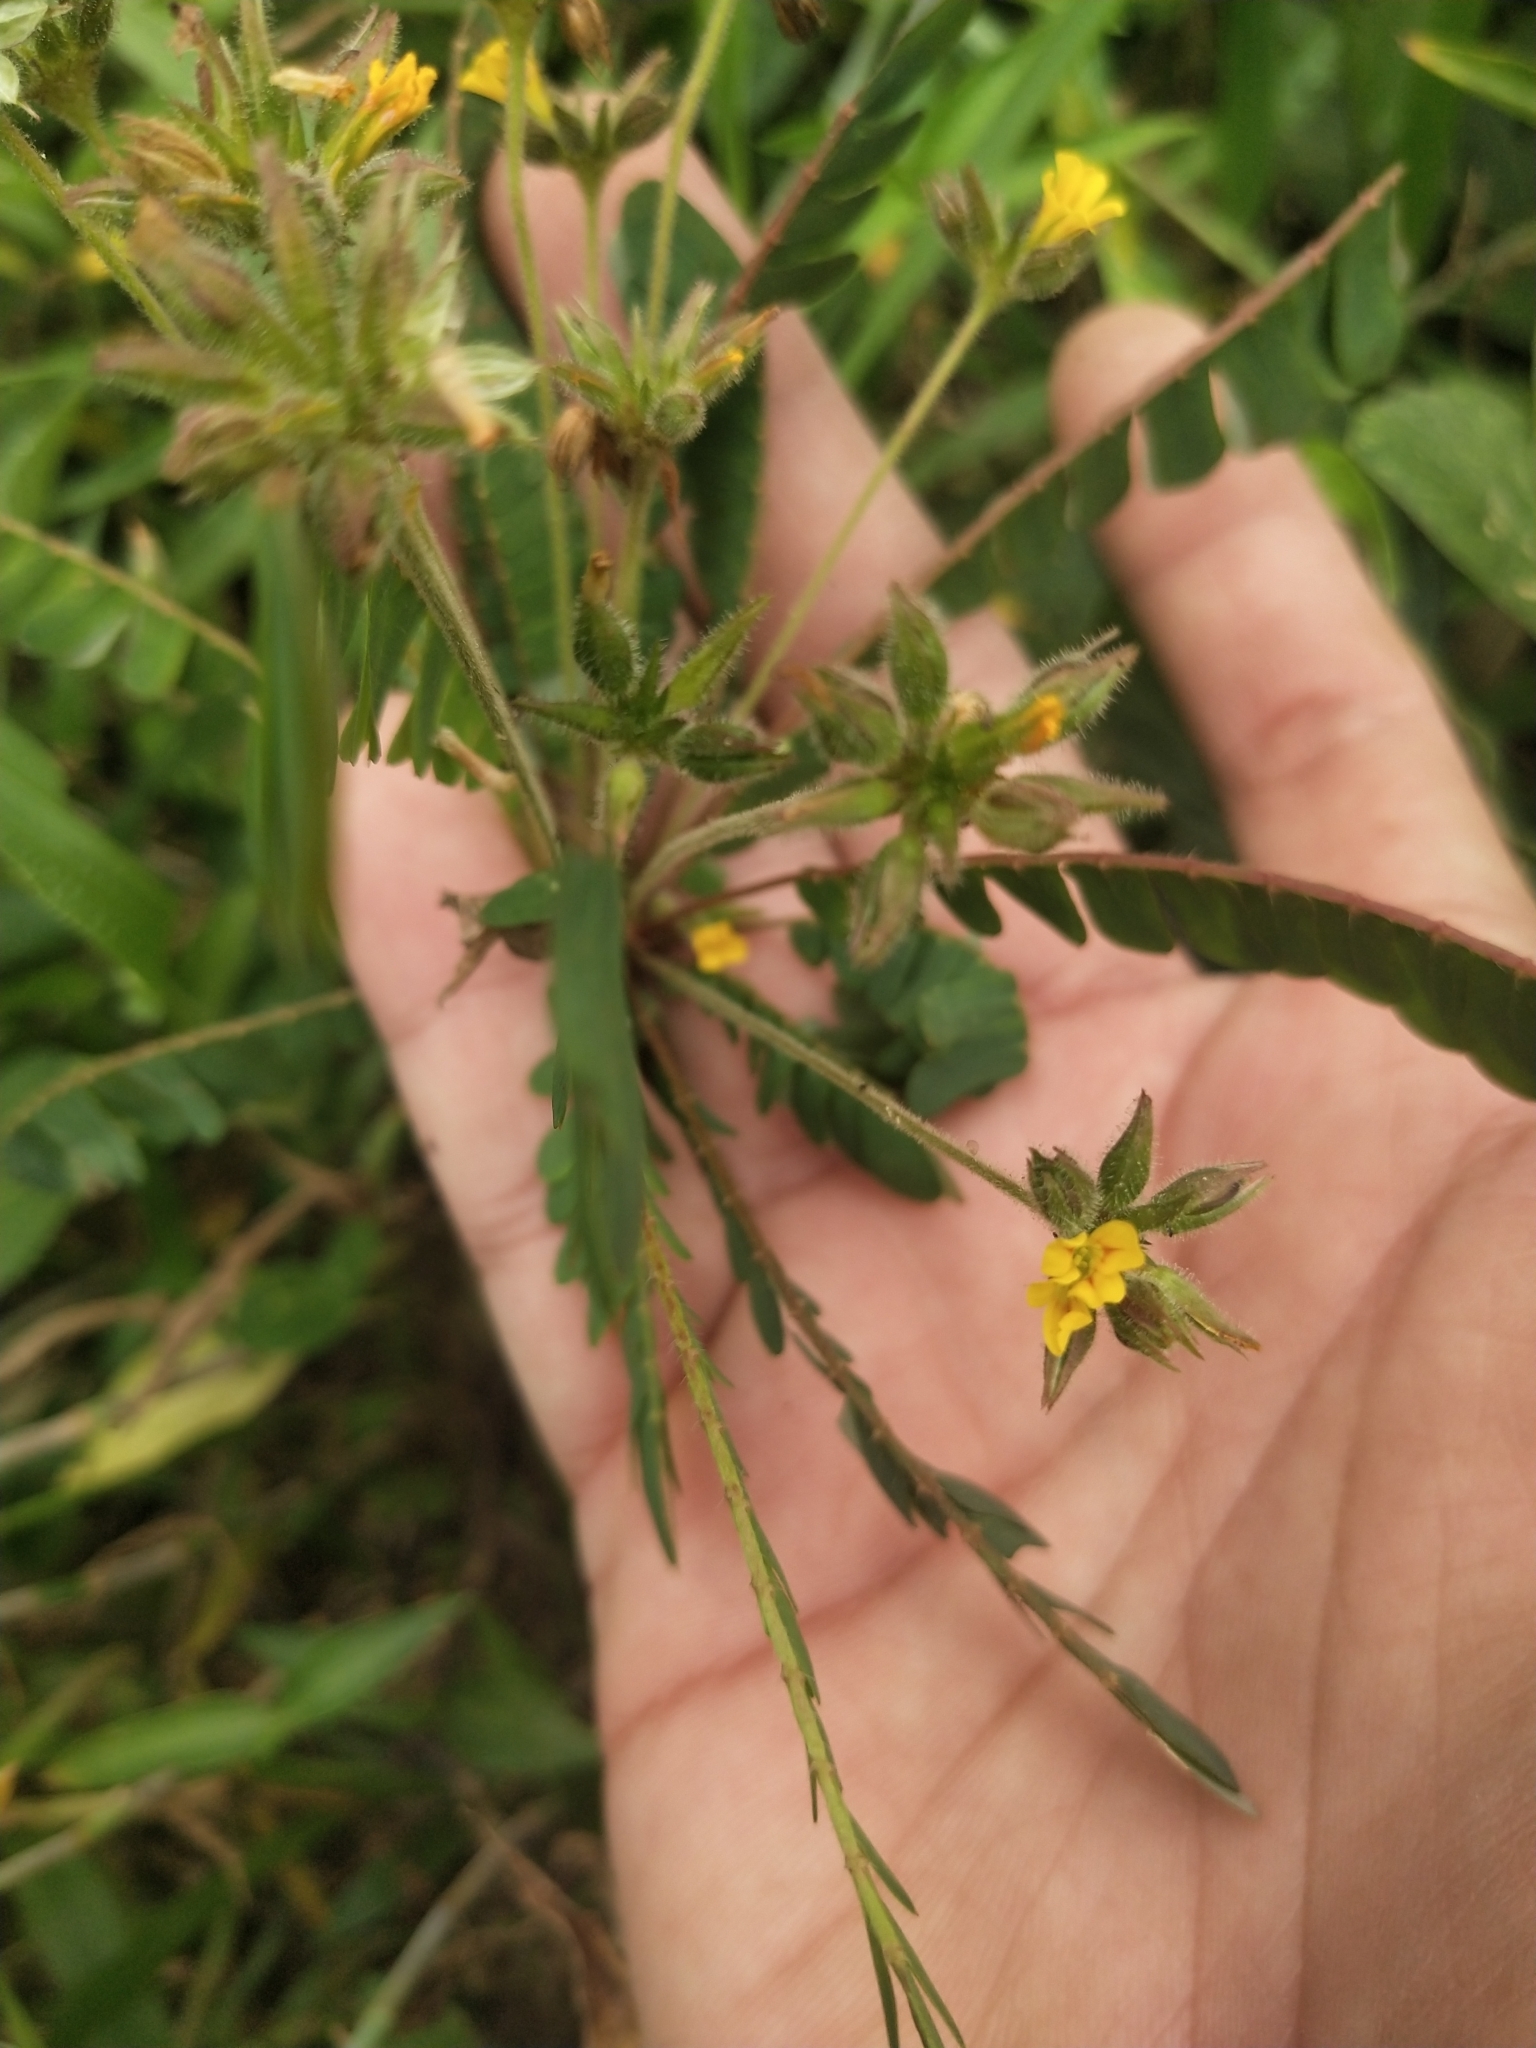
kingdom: Plantae
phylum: Tracheophyta
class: Magnoliopsida
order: Oxalidales
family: Oxalidaceae
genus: Biophytum
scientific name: Biophytum sensitivum
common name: Lifeplant
